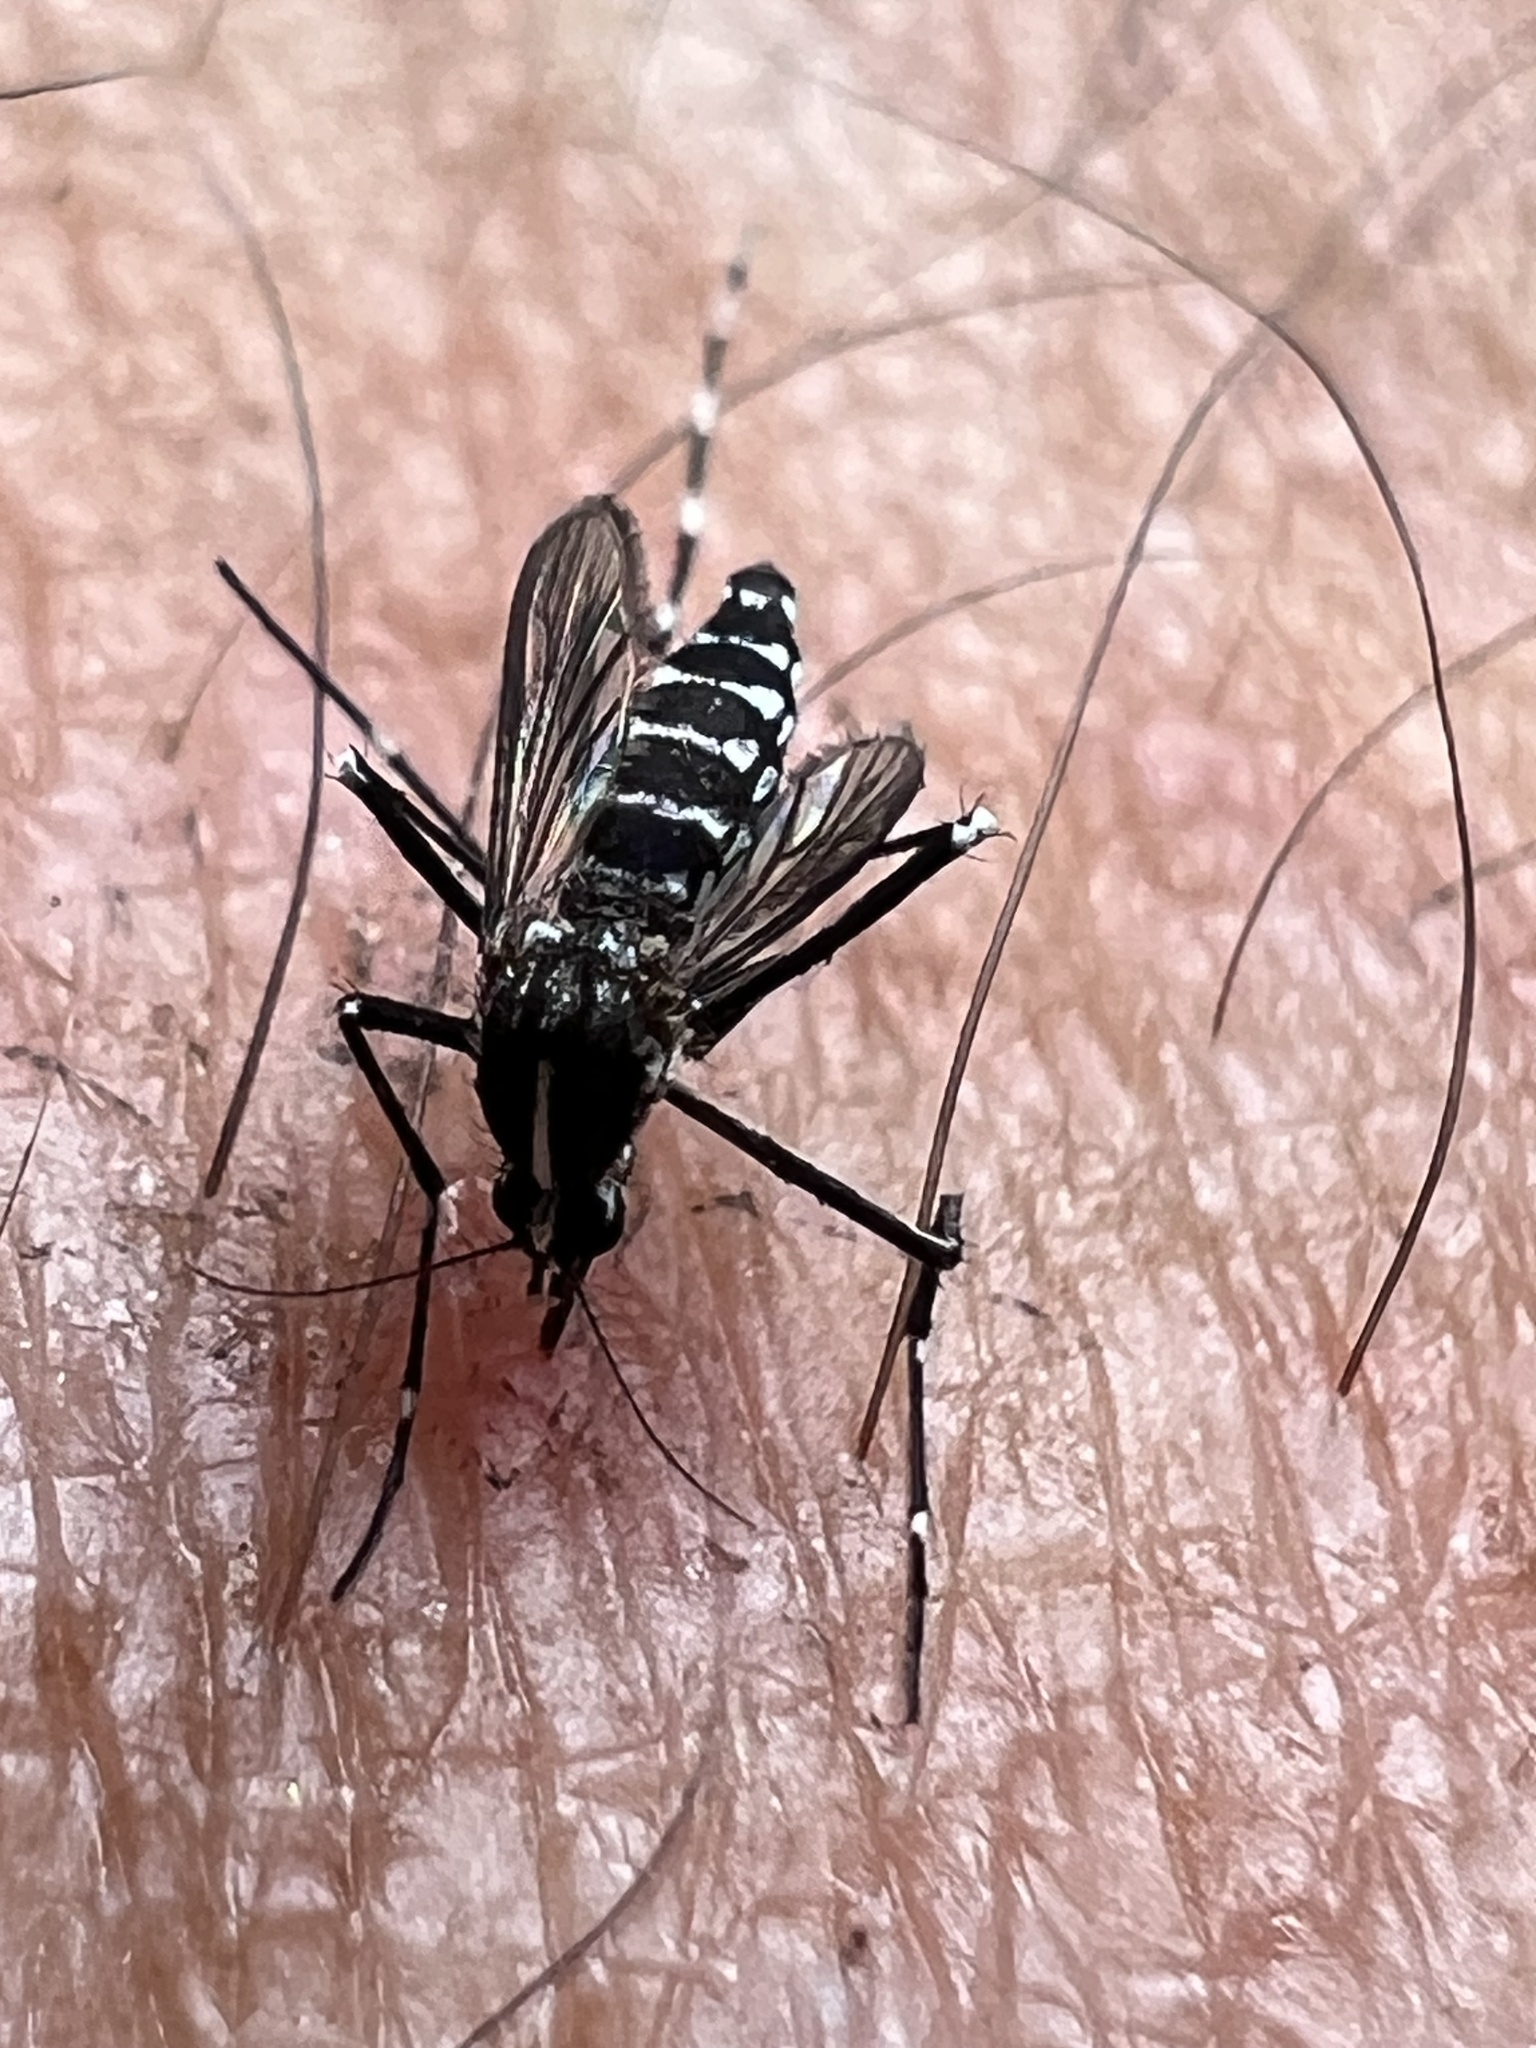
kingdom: Animalia
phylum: Arthropoda
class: Insecta
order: Diptera
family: Culicidae
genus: Aedes
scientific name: Aedes albopictus
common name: Tiger mosquito
